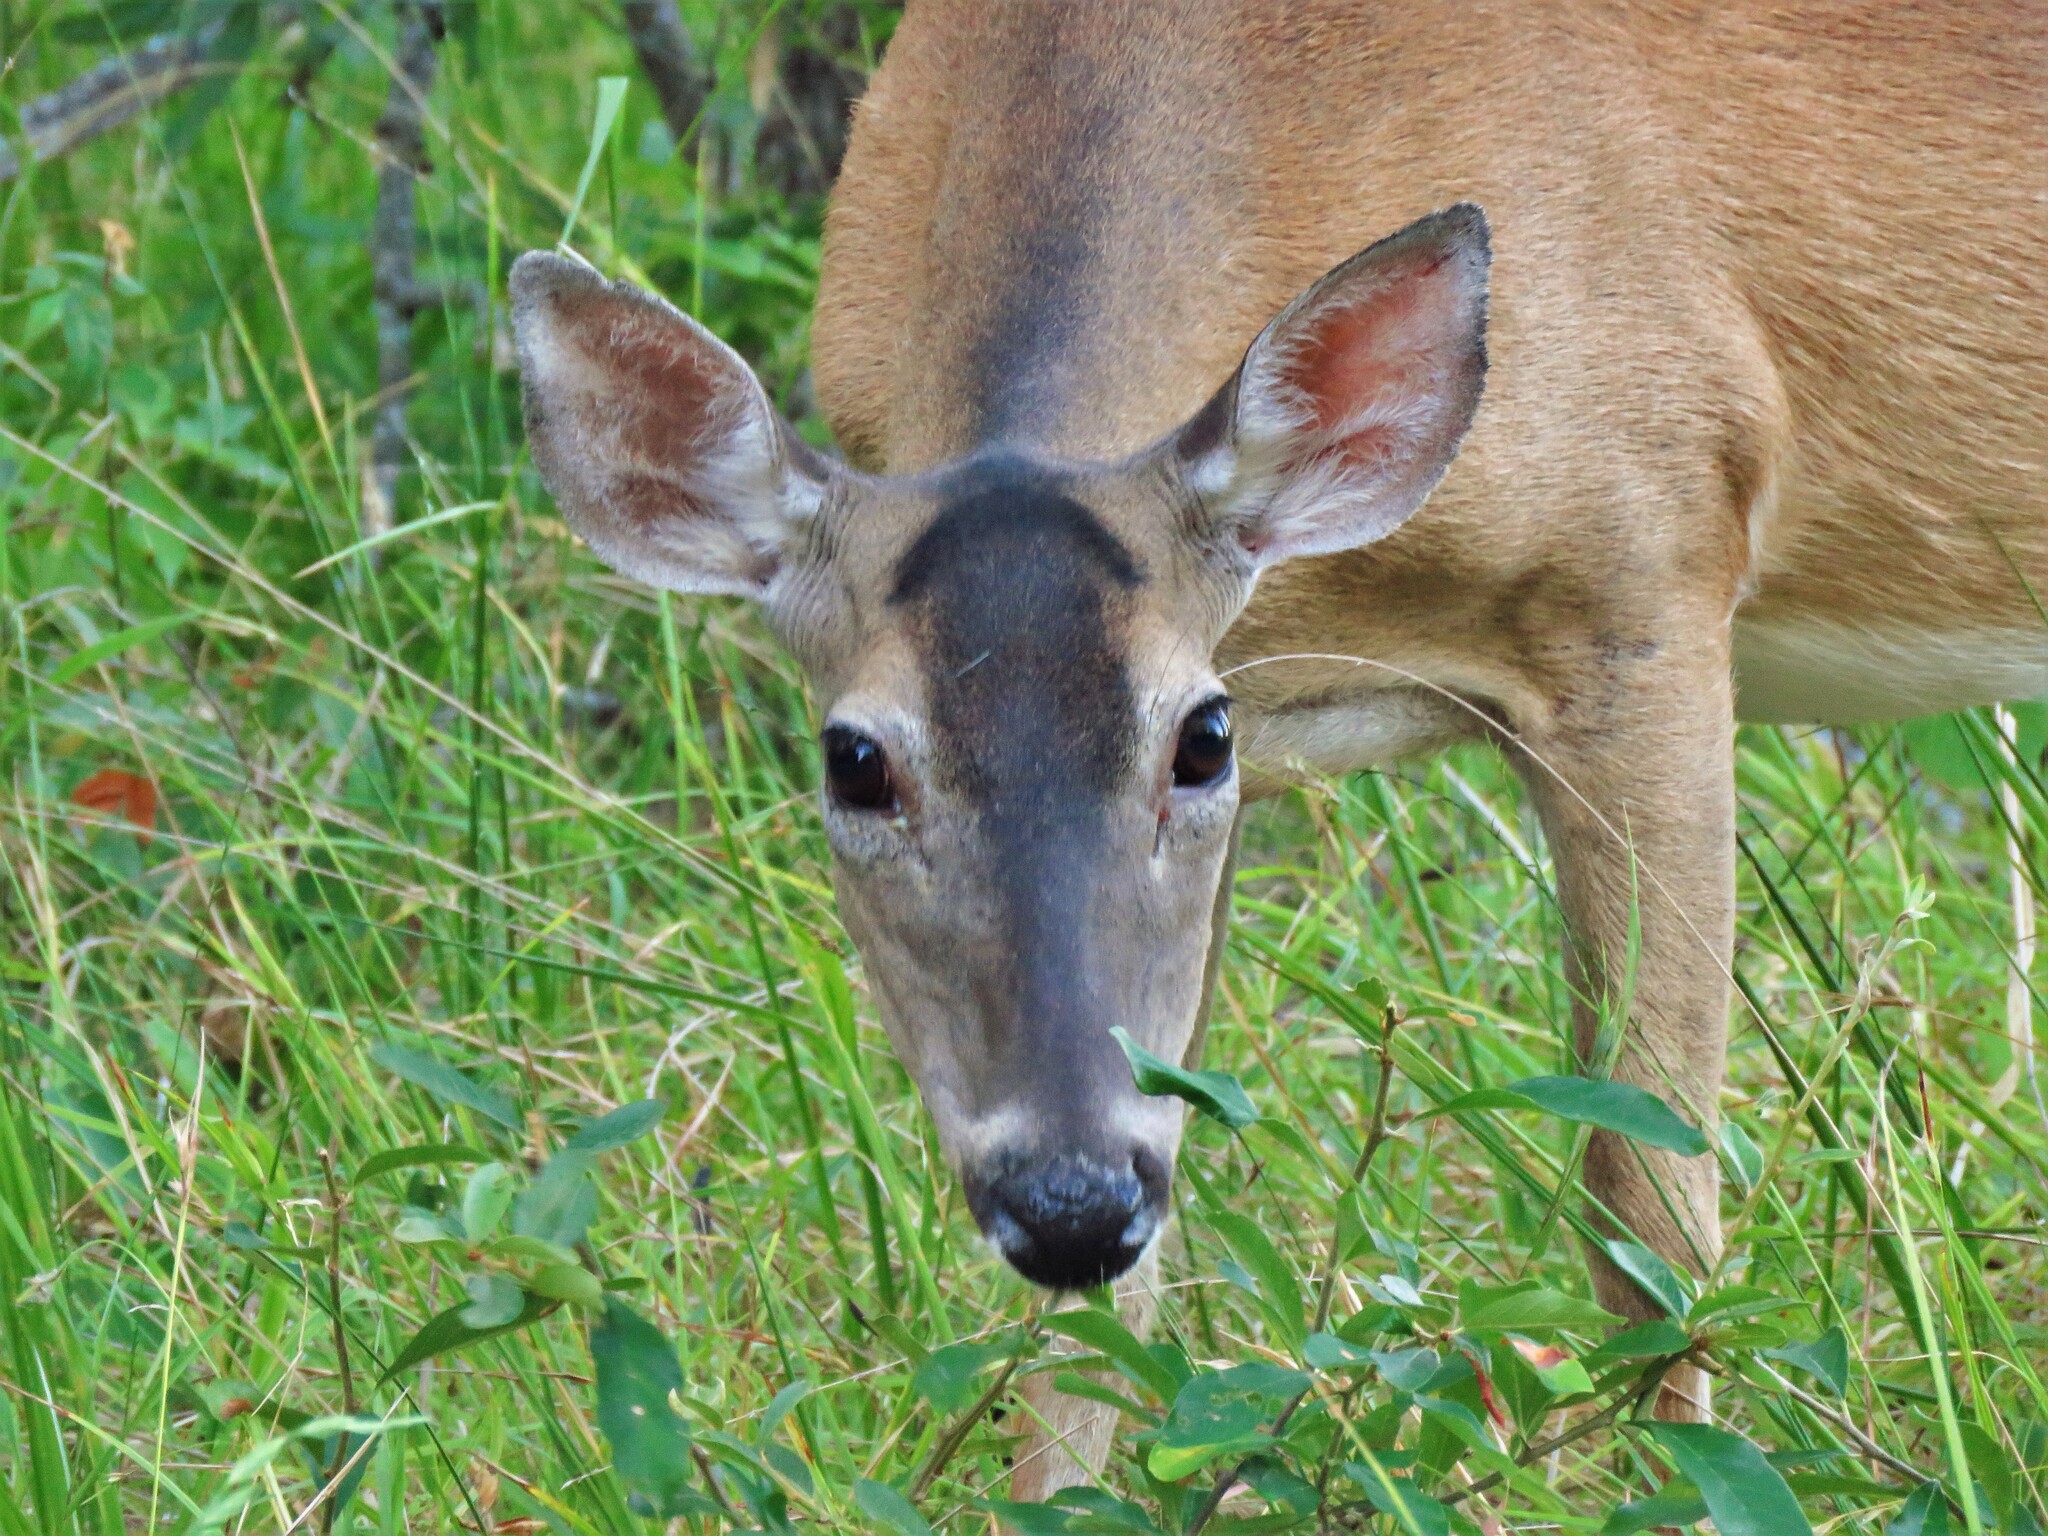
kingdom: Animalia
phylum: Chordata
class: Mammalia
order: Artiodactyla
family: Cervidae
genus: Odocoileus
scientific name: Odocoileus virginianus
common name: White-tailed deer
